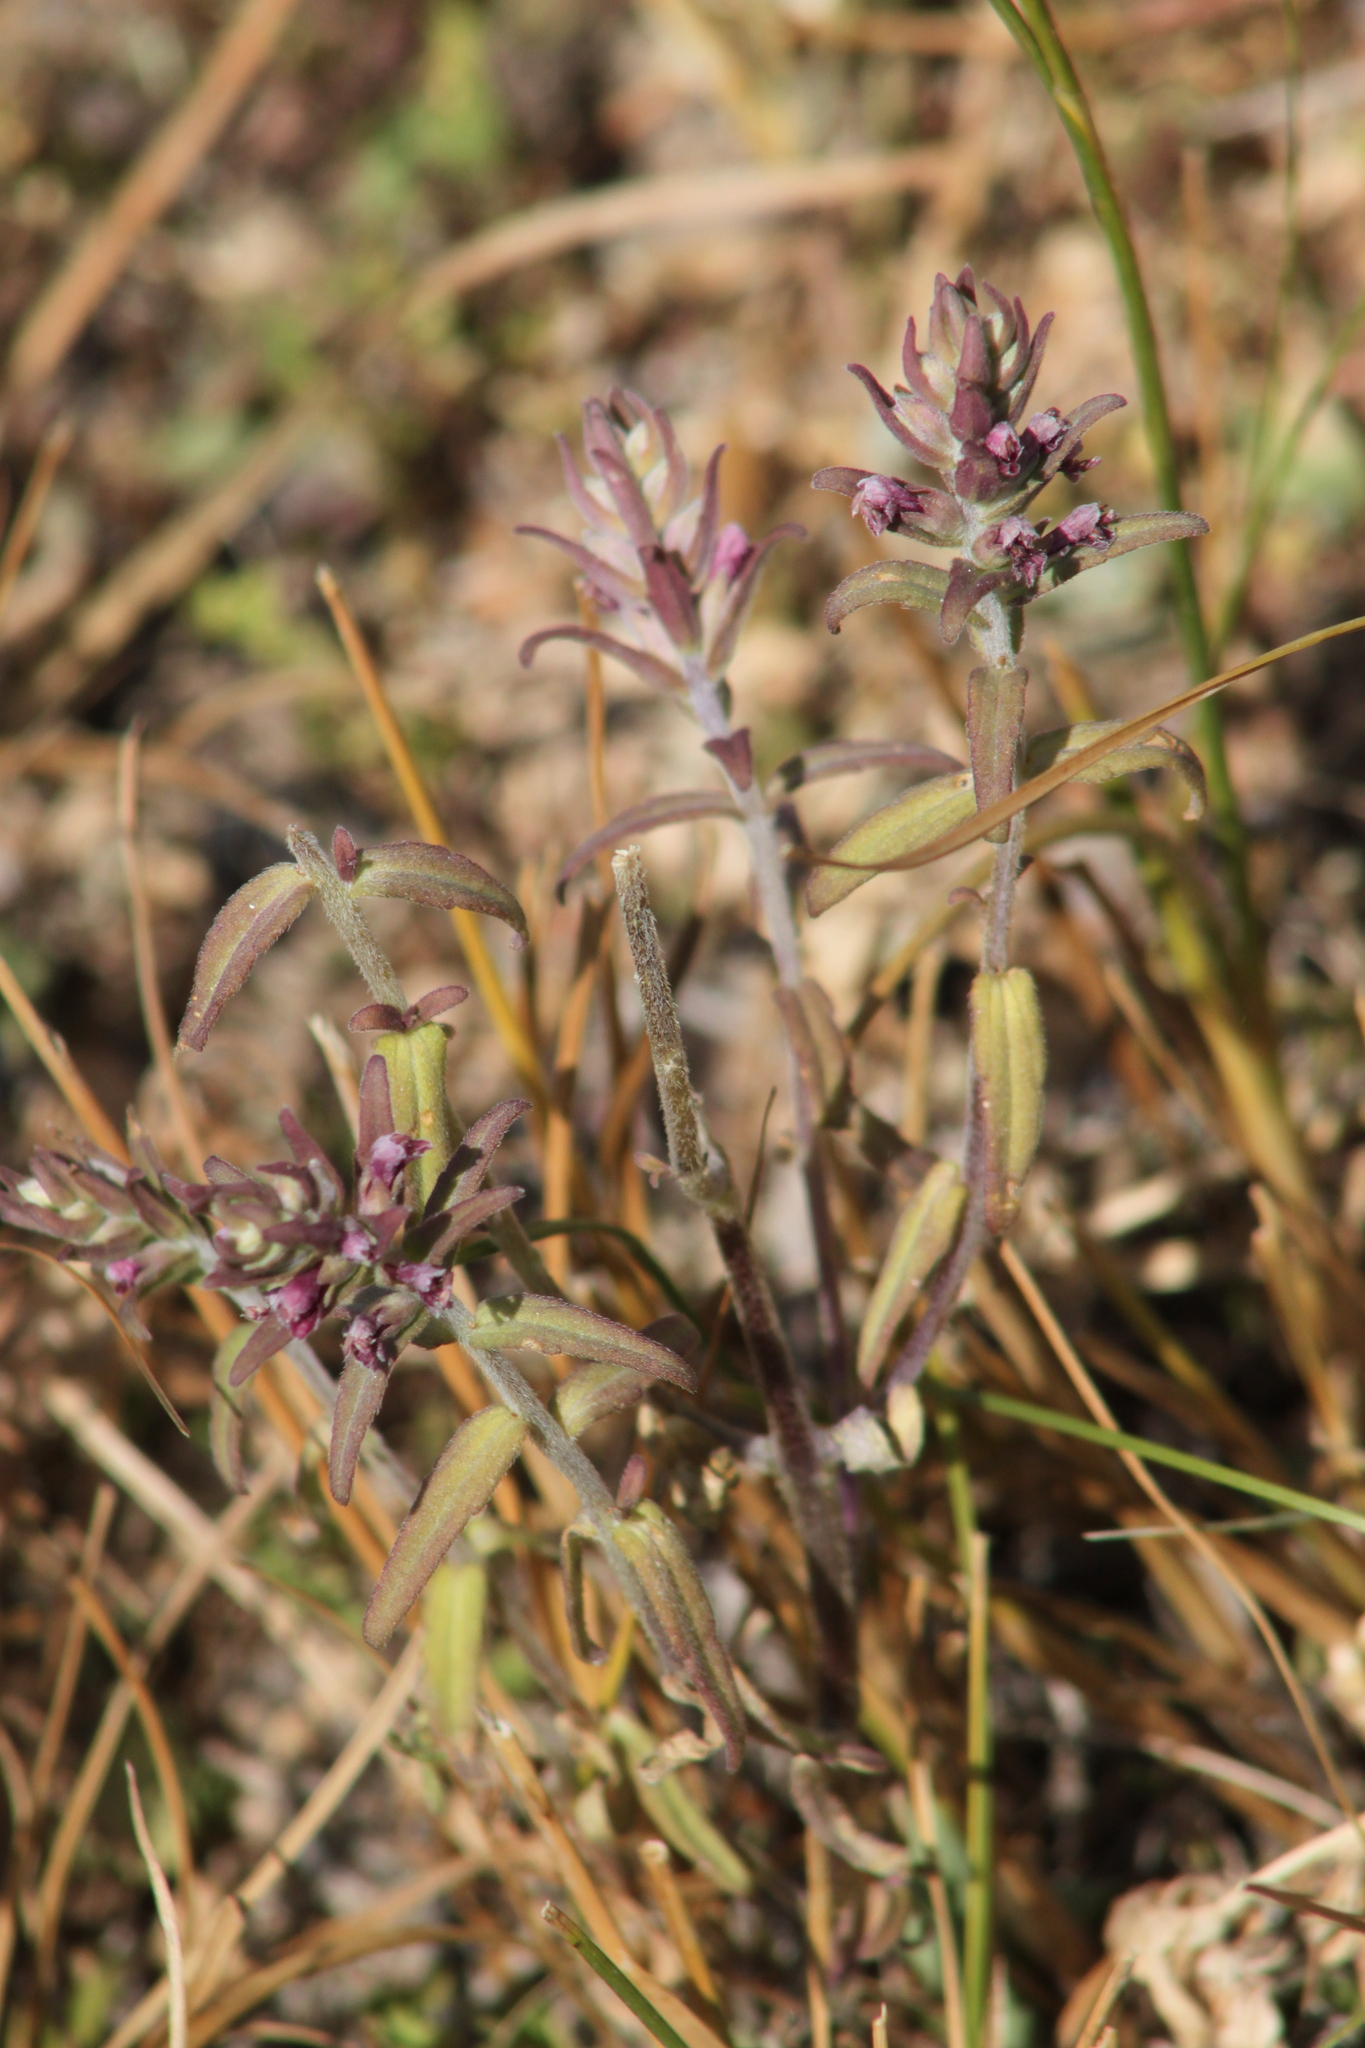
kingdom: Plantae
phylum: Tracheophyta
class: Magnoliopsida
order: Lamiales
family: Orobanchaceae
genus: Odontites
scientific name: Odontites vulgaris
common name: Broomrape
